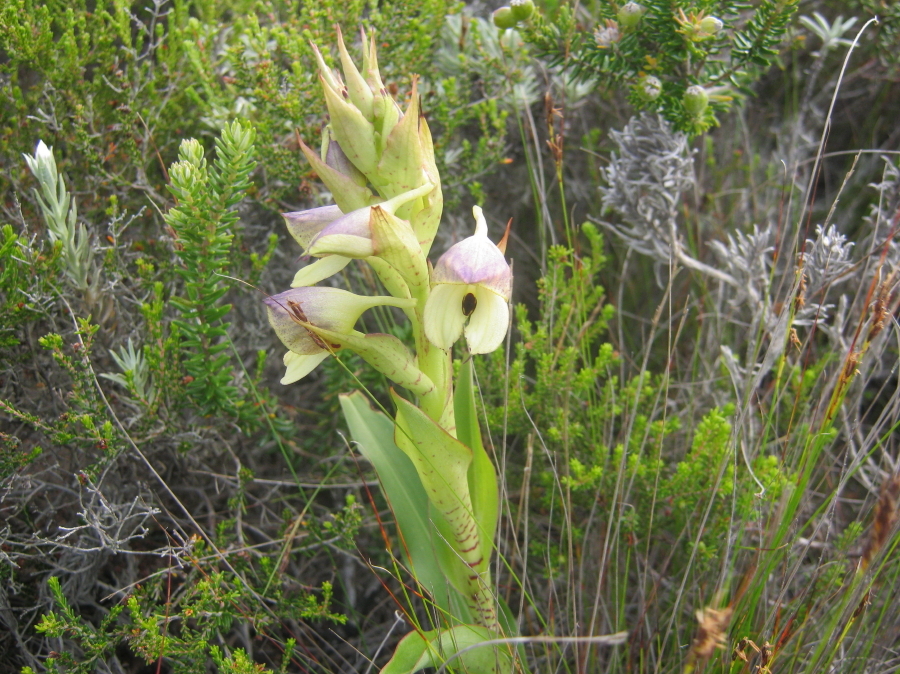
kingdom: Plantae
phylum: Tracheophyta
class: Liliopsida
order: Asparagales
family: Orchidaceae
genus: Disa
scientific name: Disa cornuta
